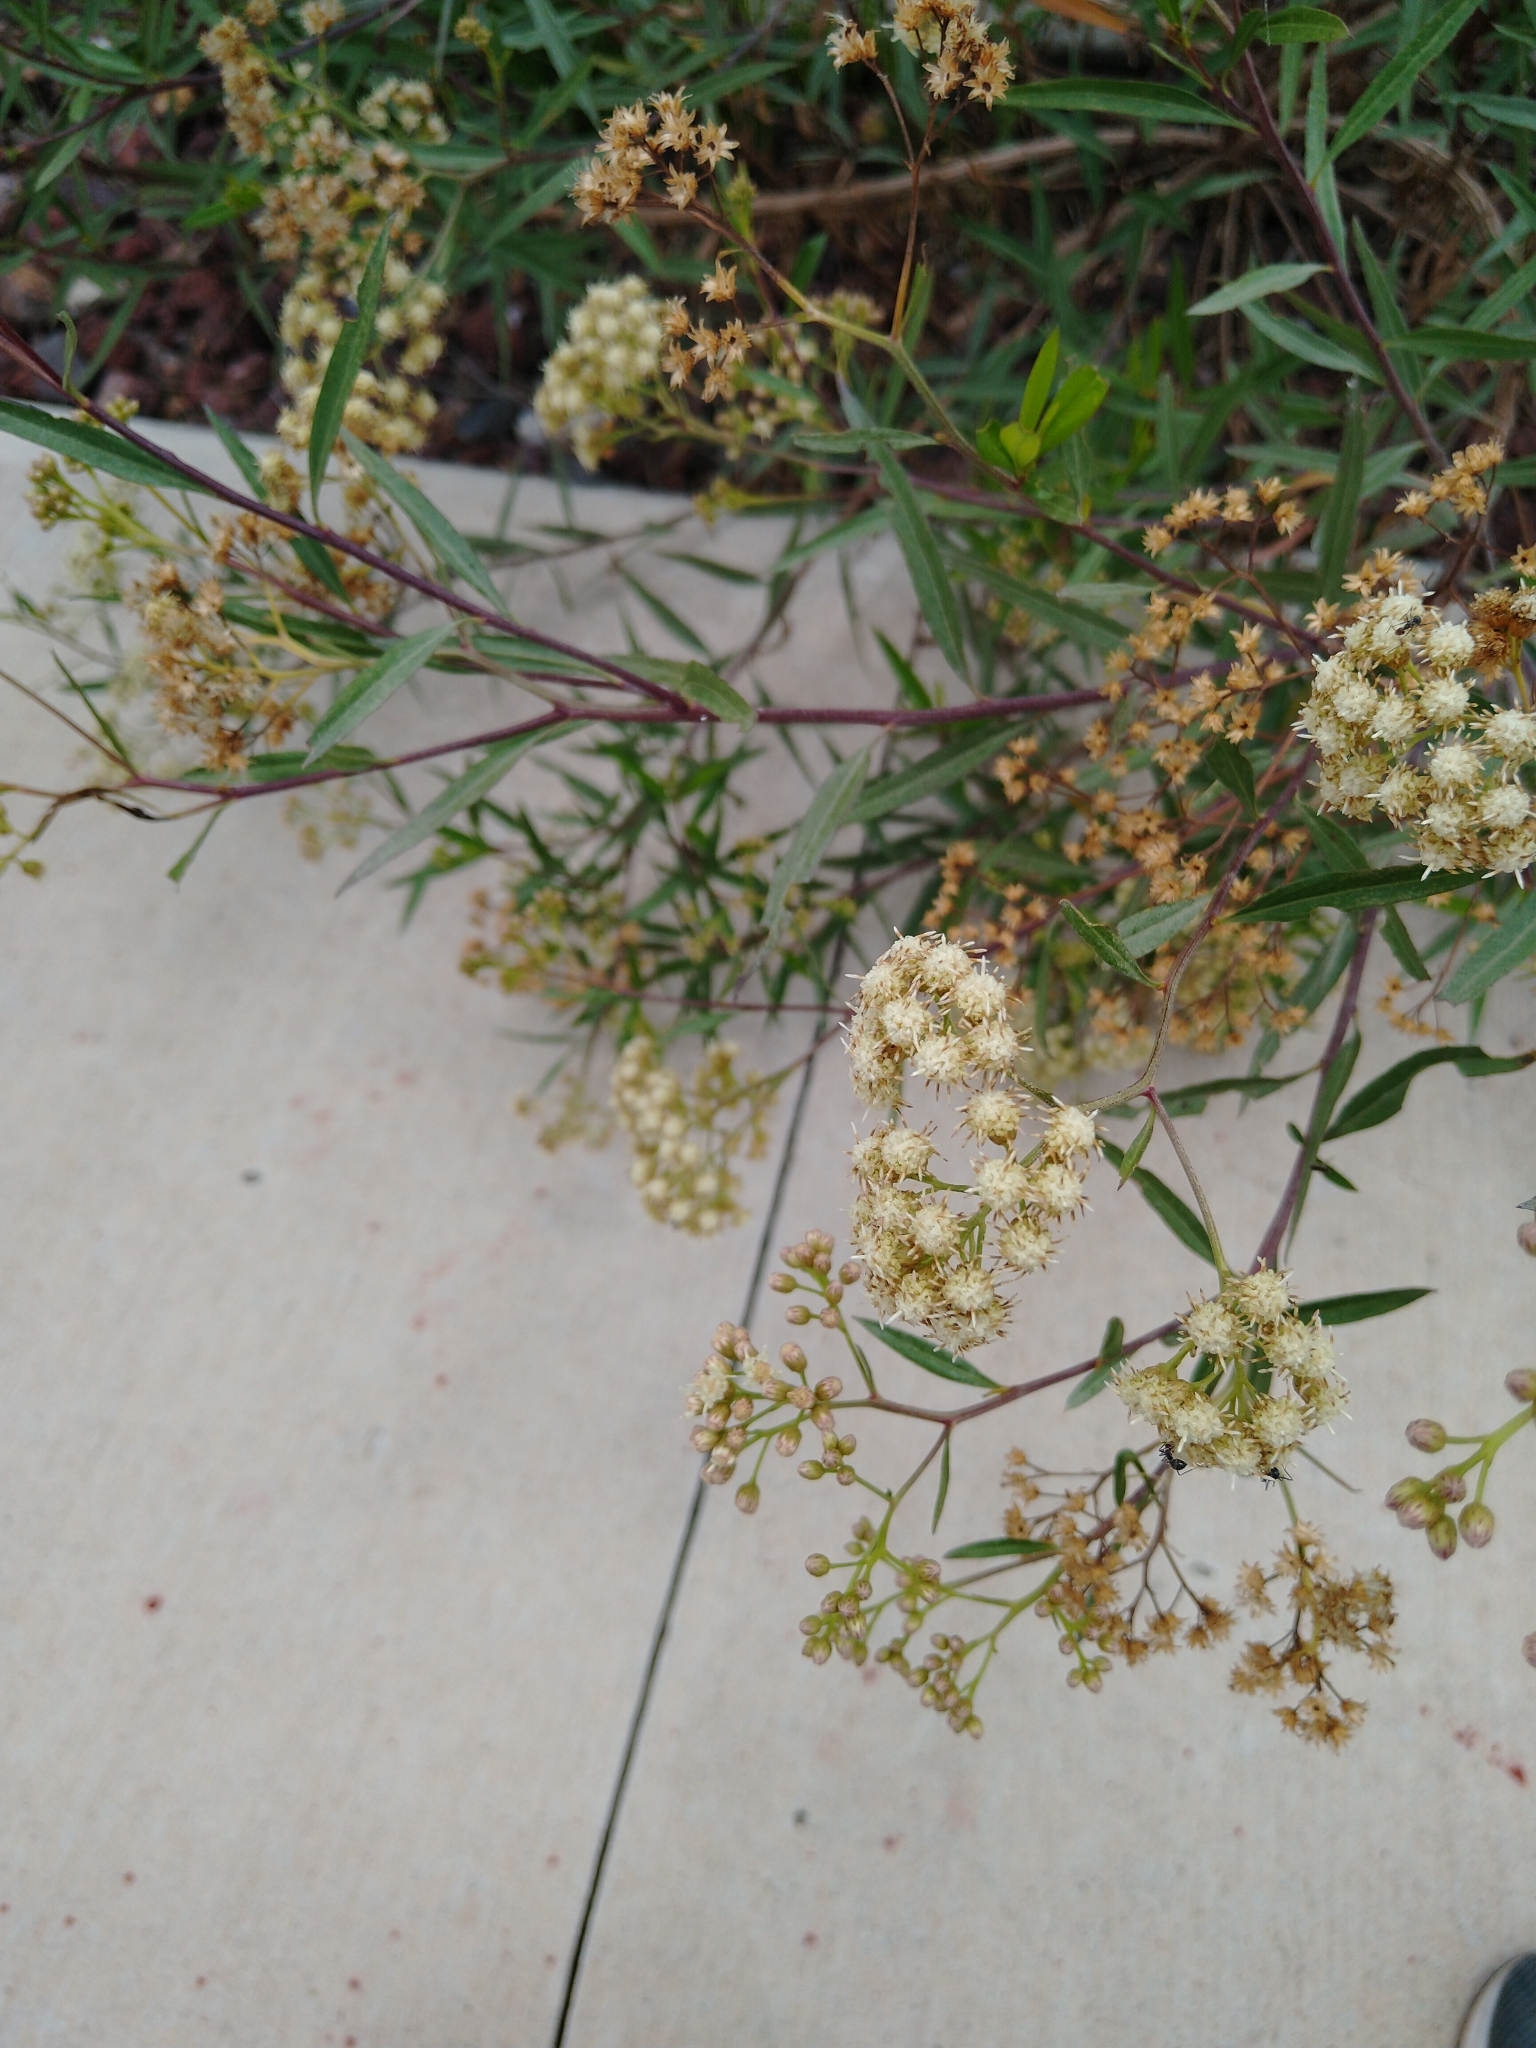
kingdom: Plantae
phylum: Tracheophyta
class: Magnoliopsida
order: Asterales
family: Asteraceae
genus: Baccharis
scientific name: Baccharis salicifolia
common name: Sticky baccharis
